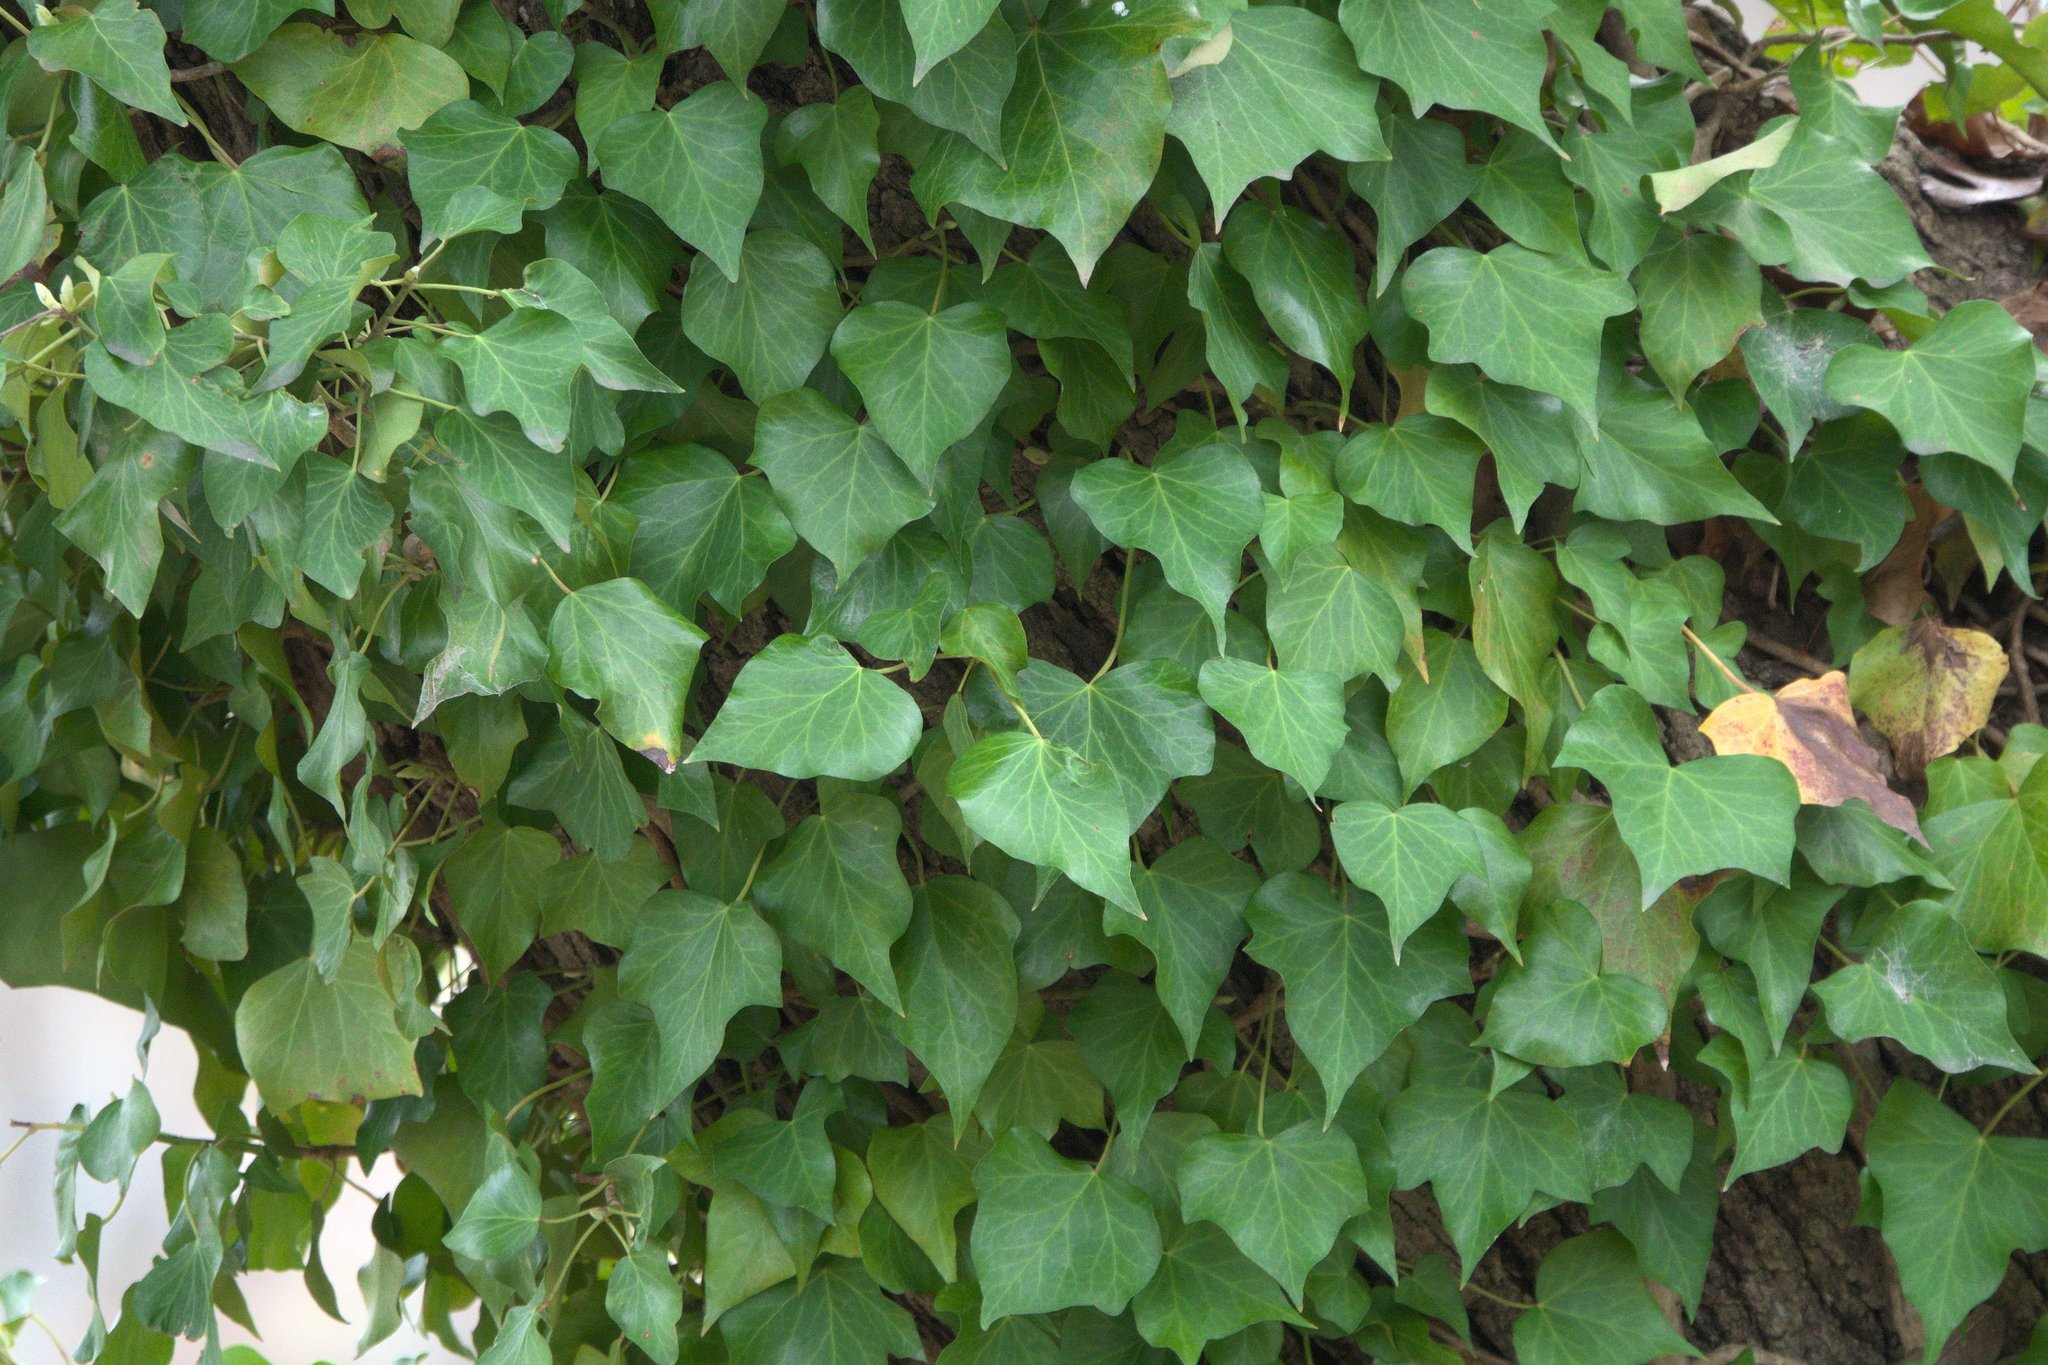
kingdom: Plantae
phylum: Tracheophyta
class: Magnoliopsida
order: Apiales
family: Araliaceae
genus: Hedera
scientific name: Hedera helix
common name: Ivy
